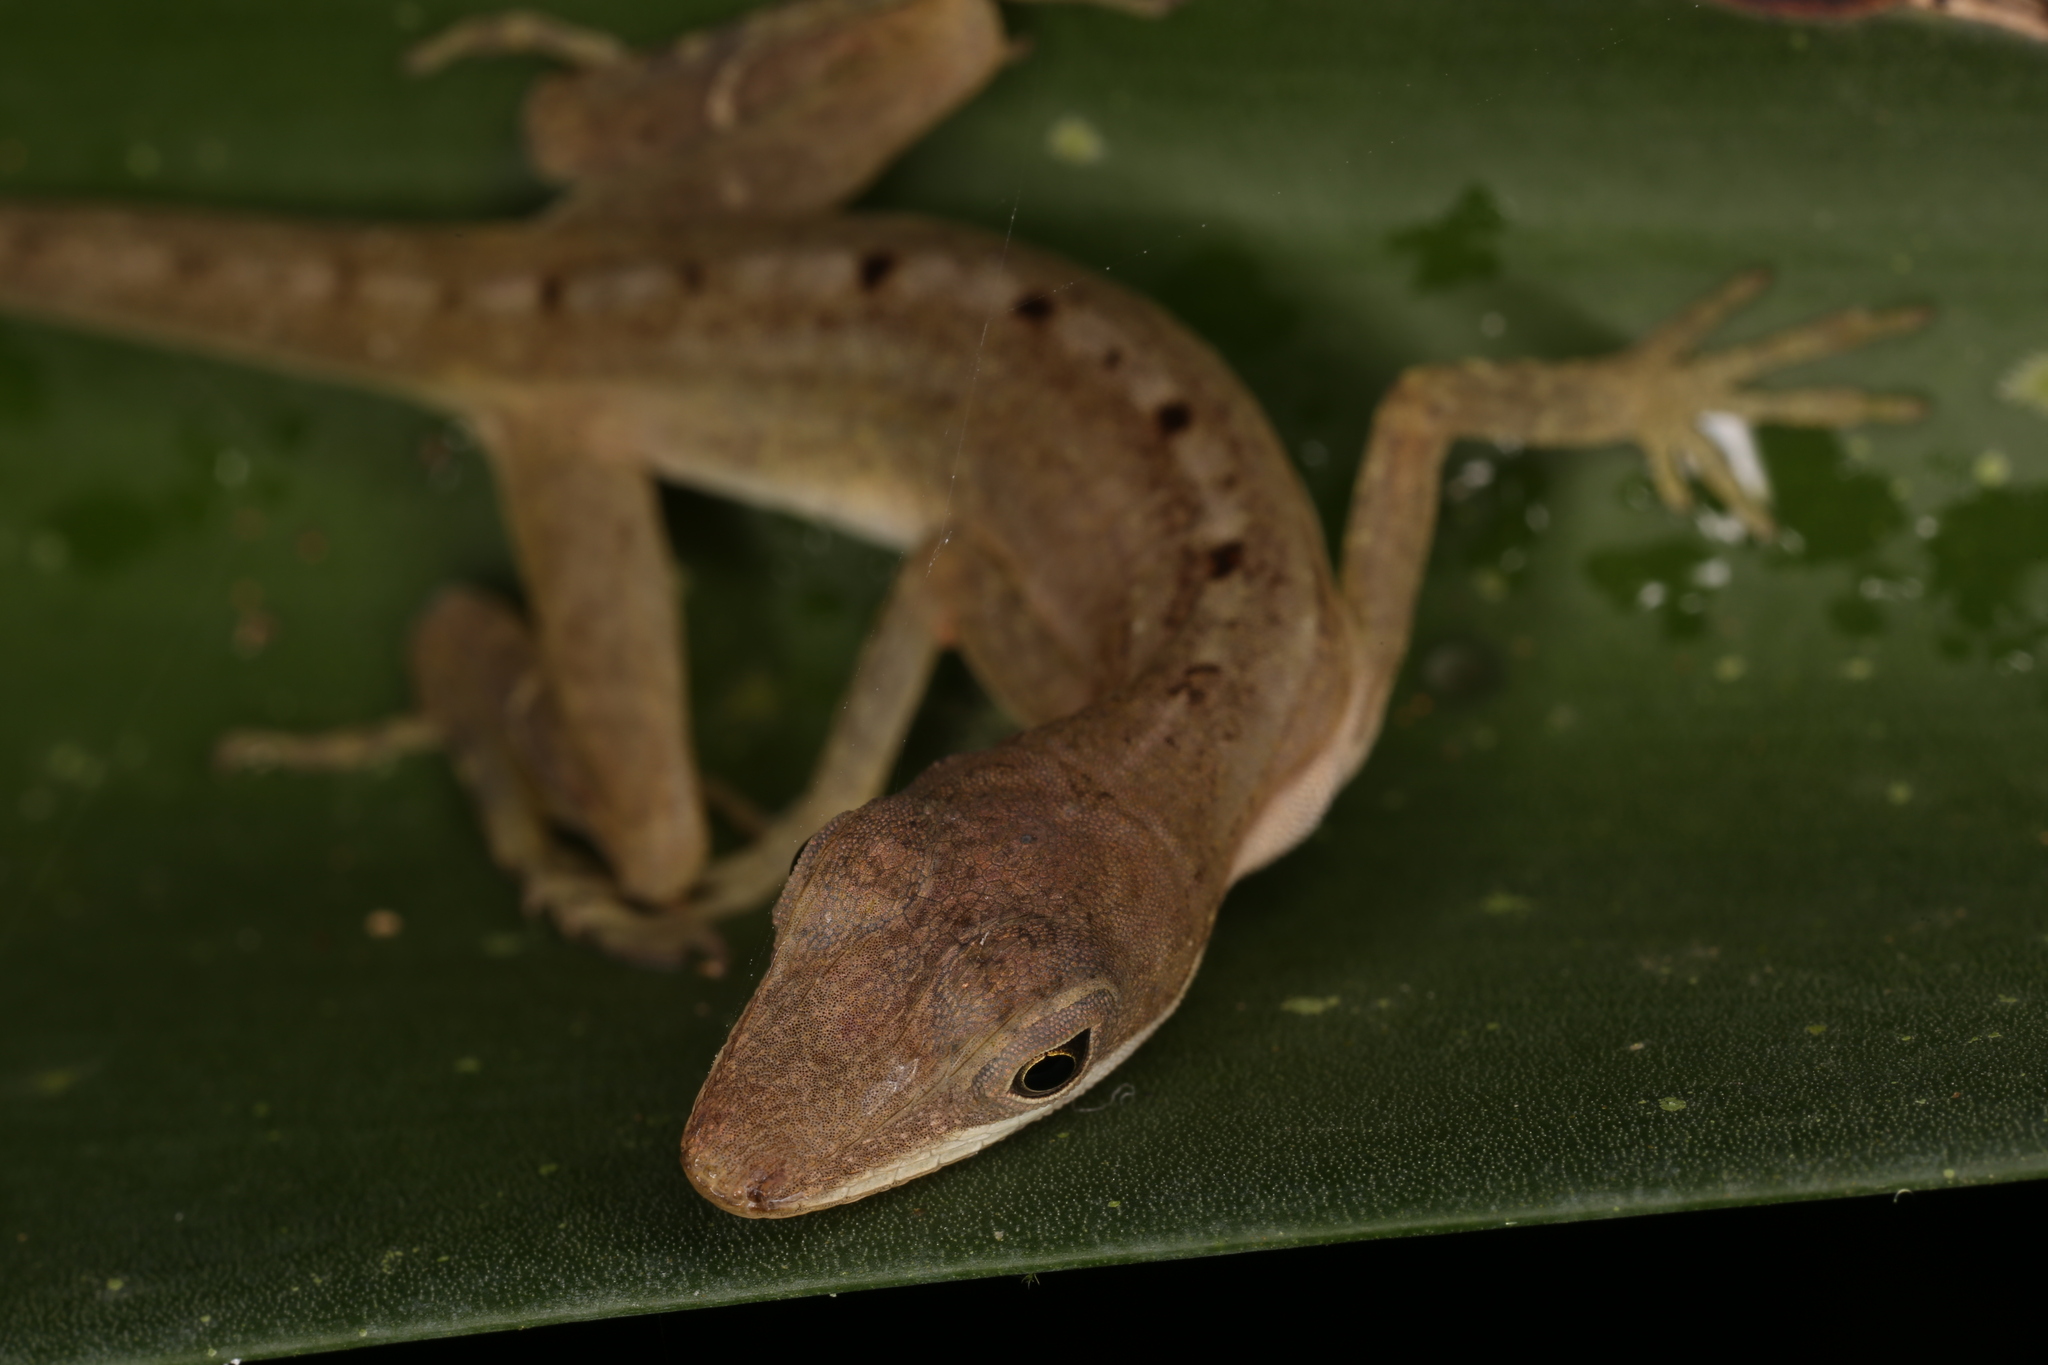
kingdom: Animalia
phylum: Chordata
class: Squamata
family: Dactyloidae
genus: Anolis
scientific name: Anolis limifrons
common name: Border anole
